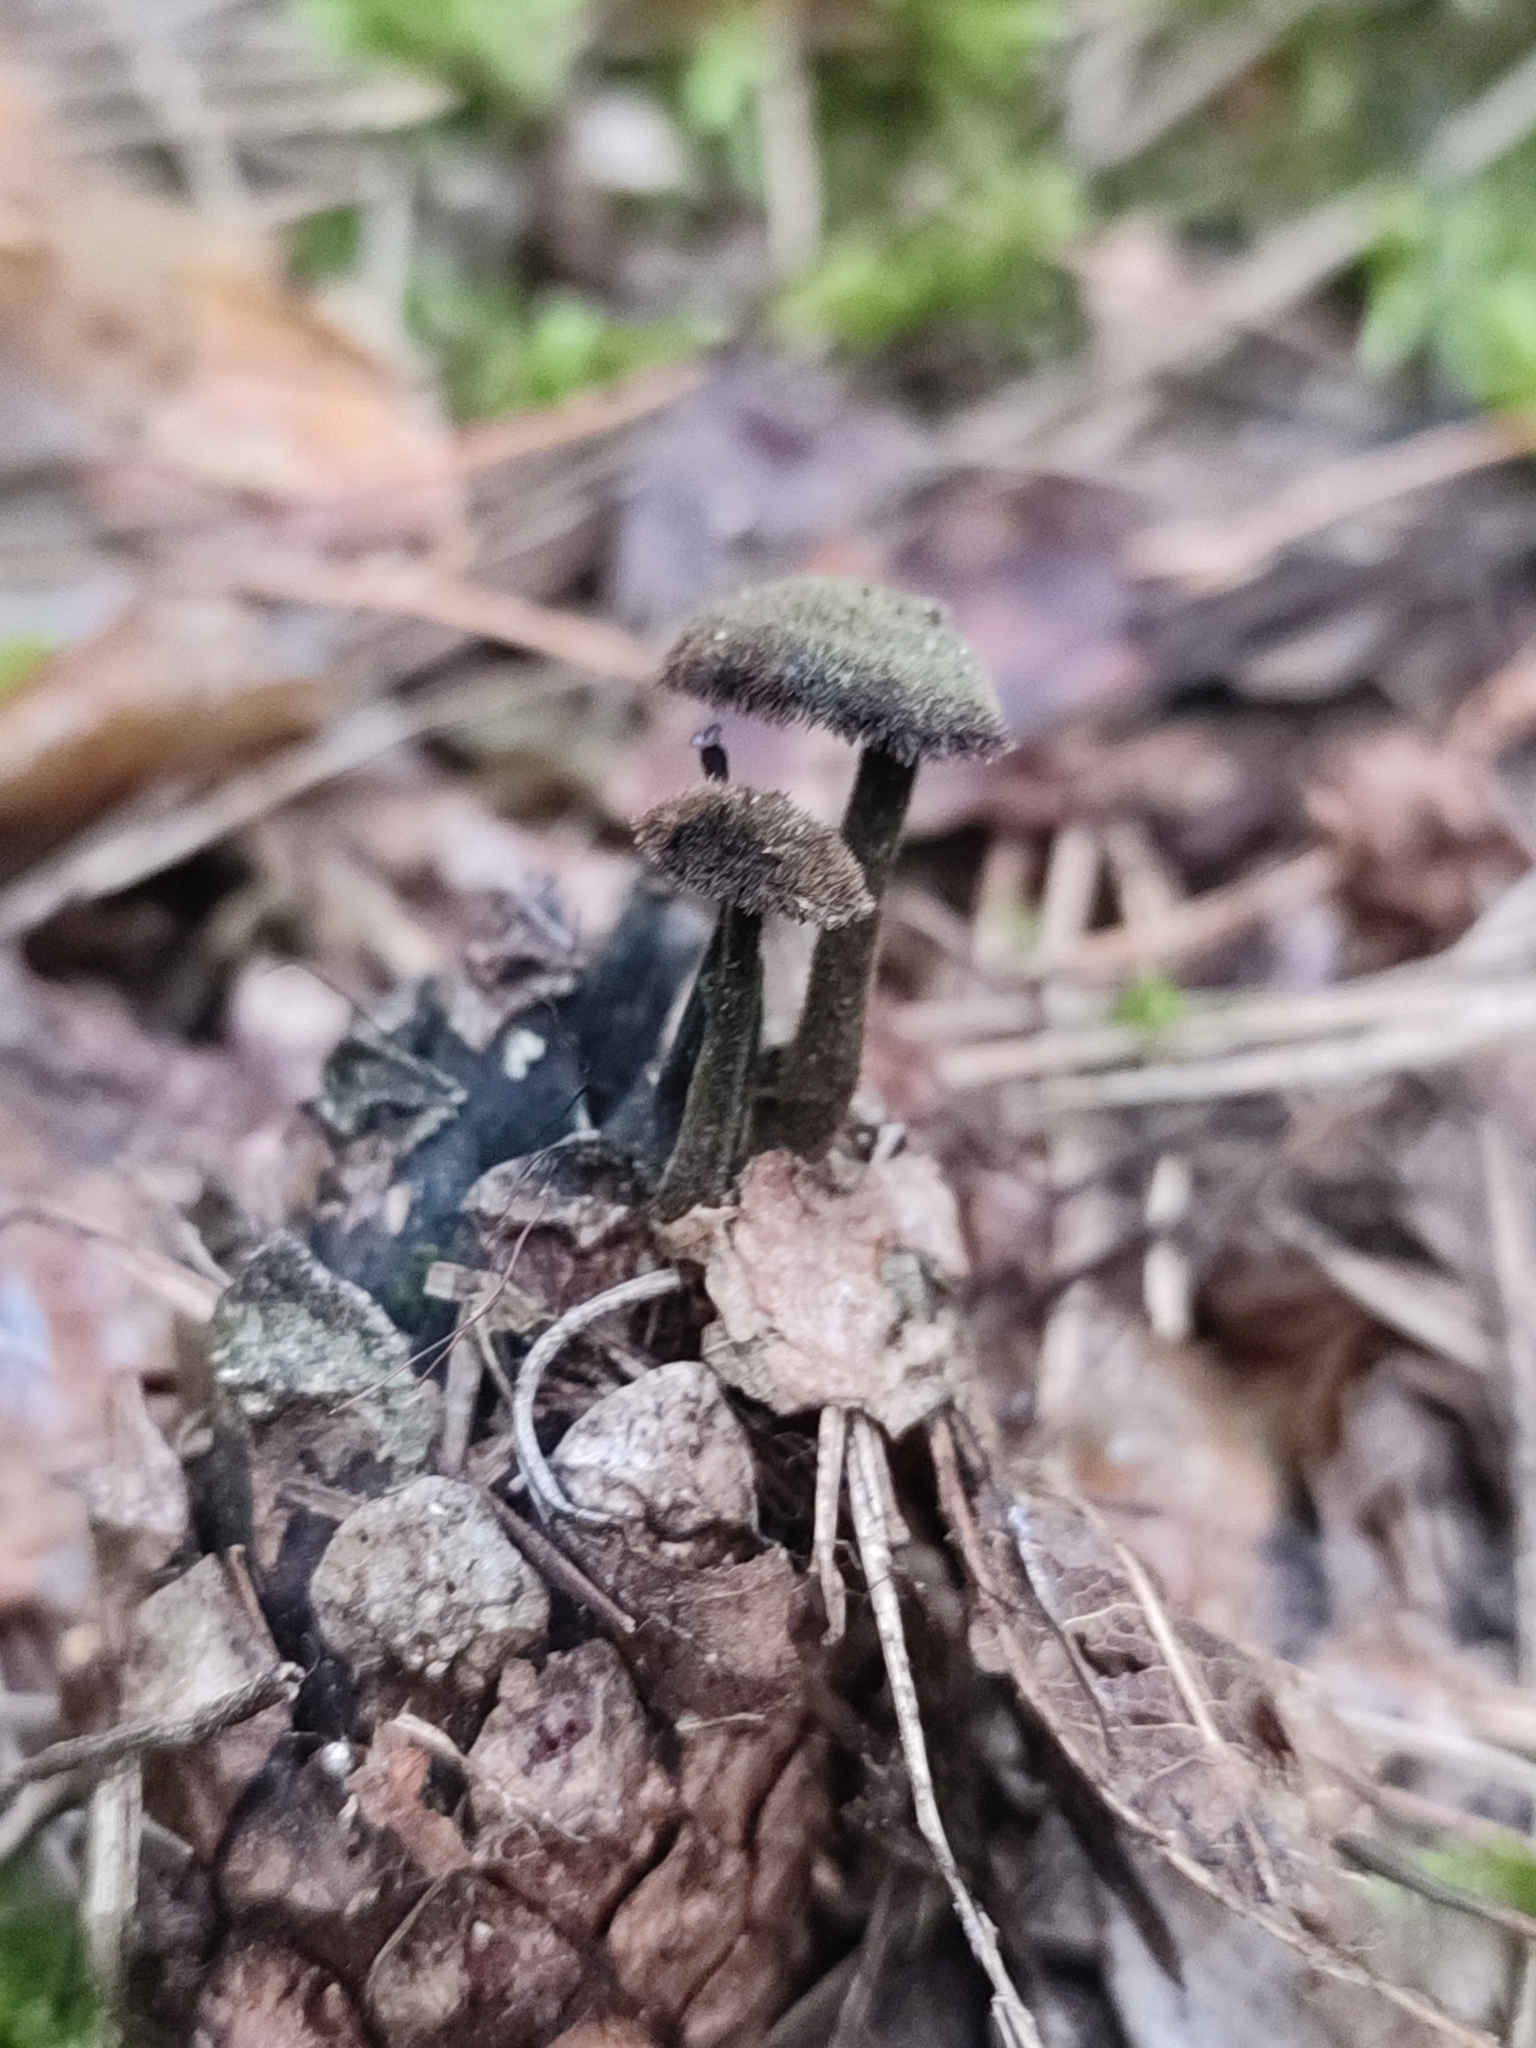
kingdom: Fungi
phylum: Basidiomycota
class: Agaricomycetes
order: Russulales
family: Auriscalpiaceae
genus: Auriscalpium
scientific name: Auriscalpium vulgare
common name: Earpick fungus
